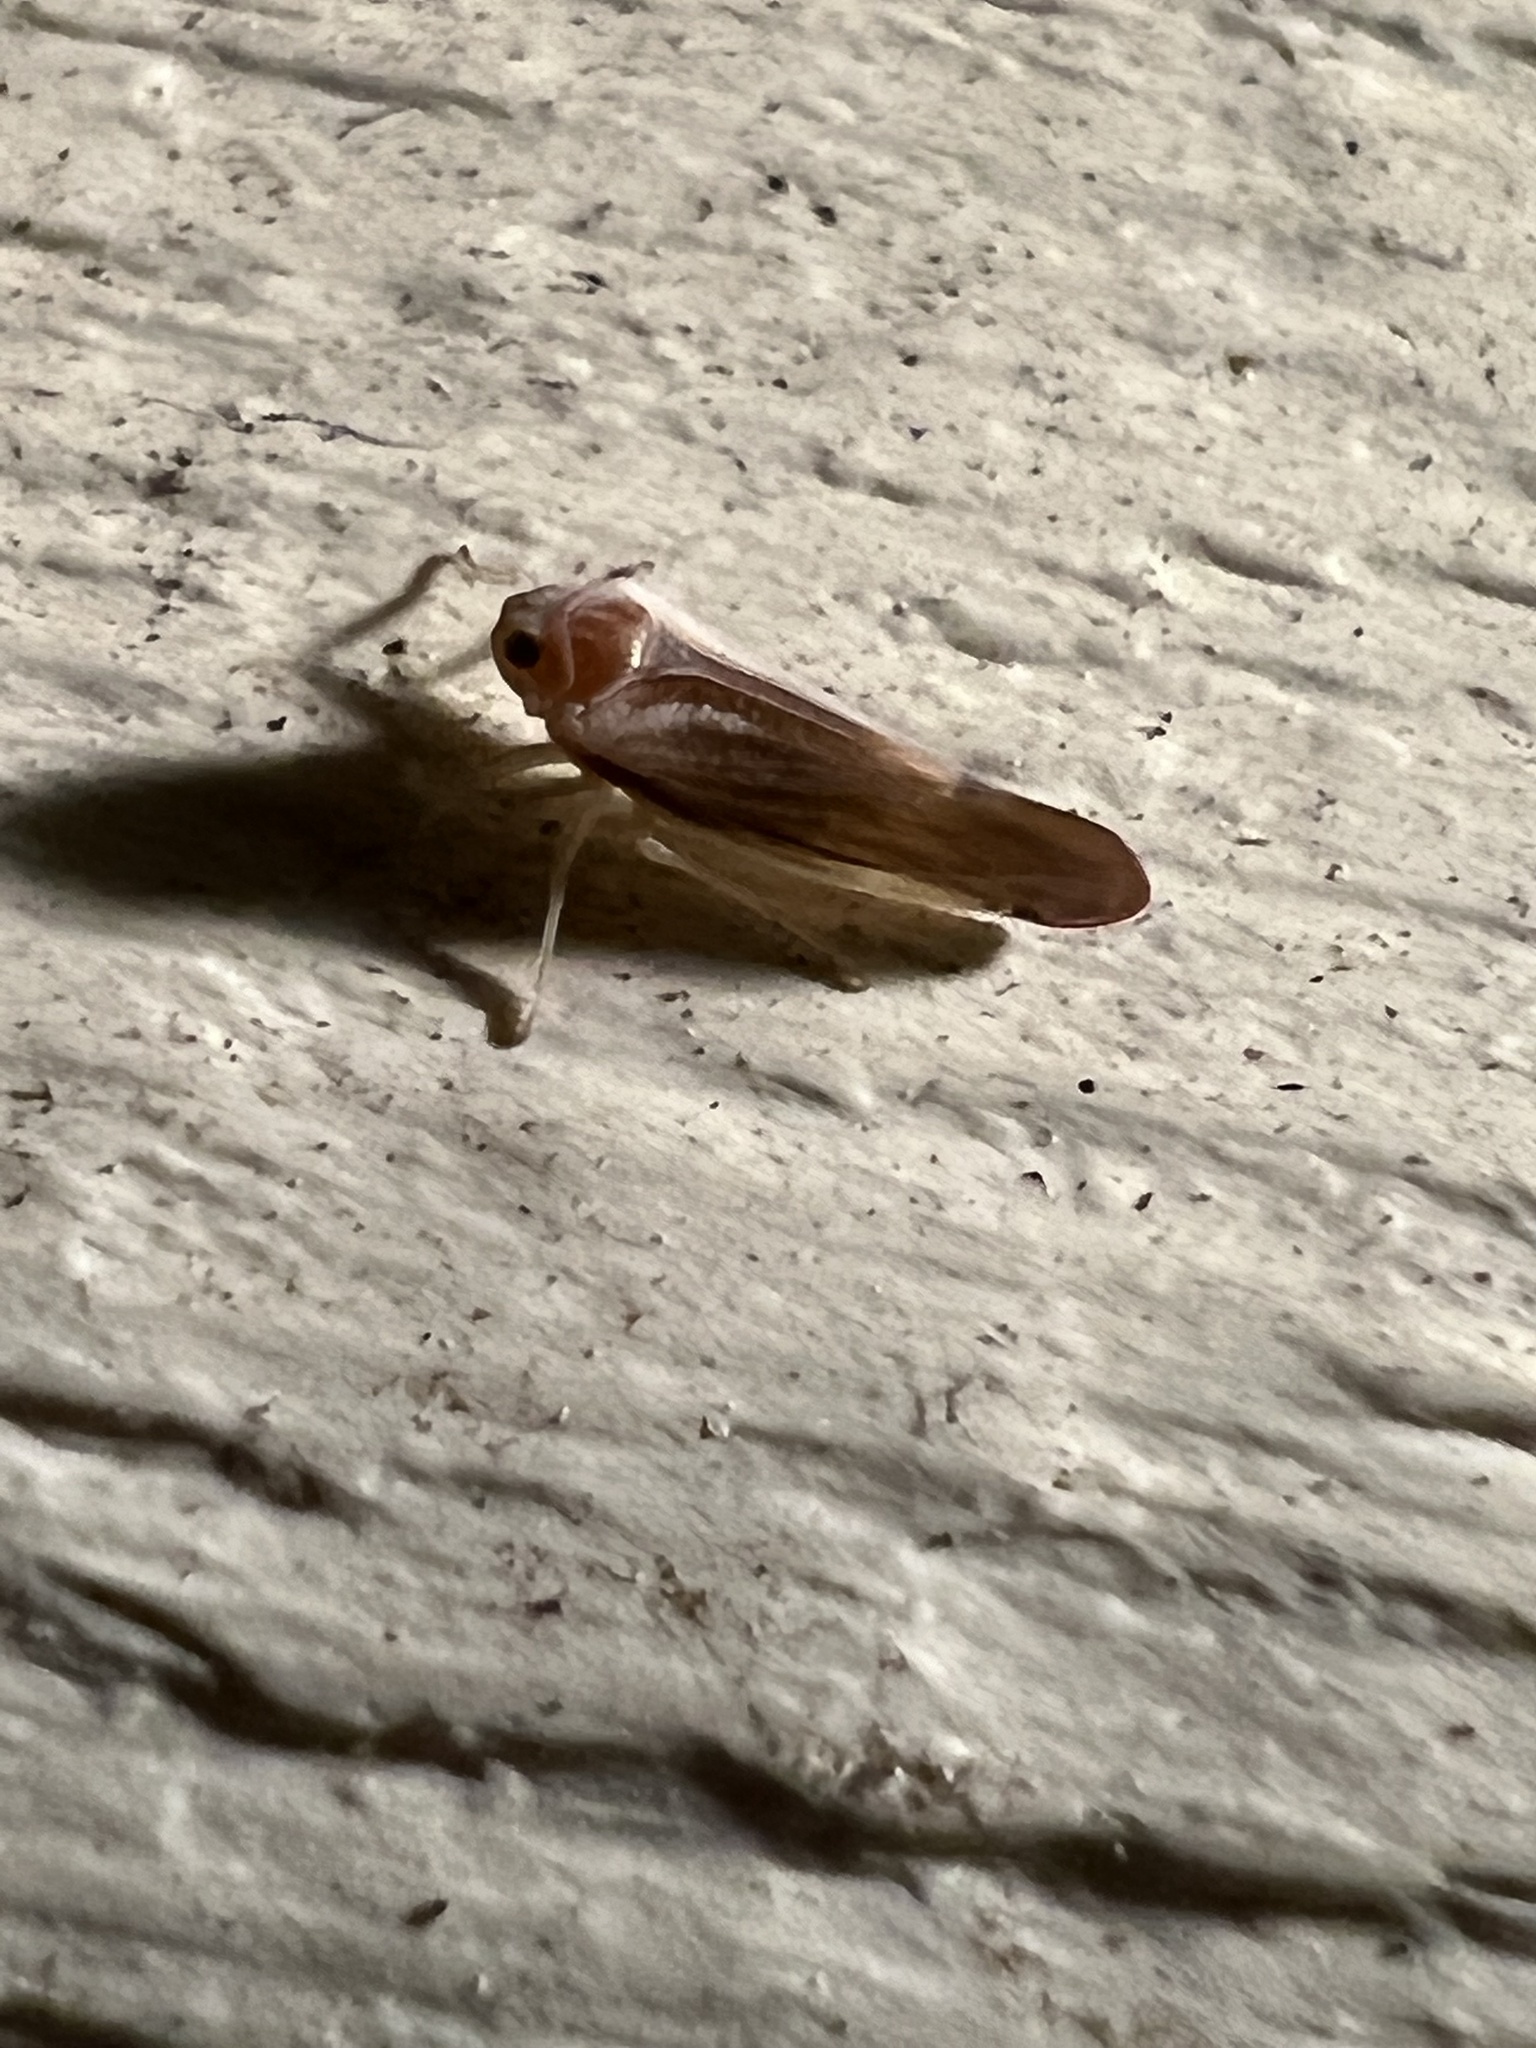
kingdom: Animalia
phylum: Arthropoda
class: Insecta
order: Hemiptera
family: Derbidae
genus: Omolicna
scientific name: Omolicna uhleri
